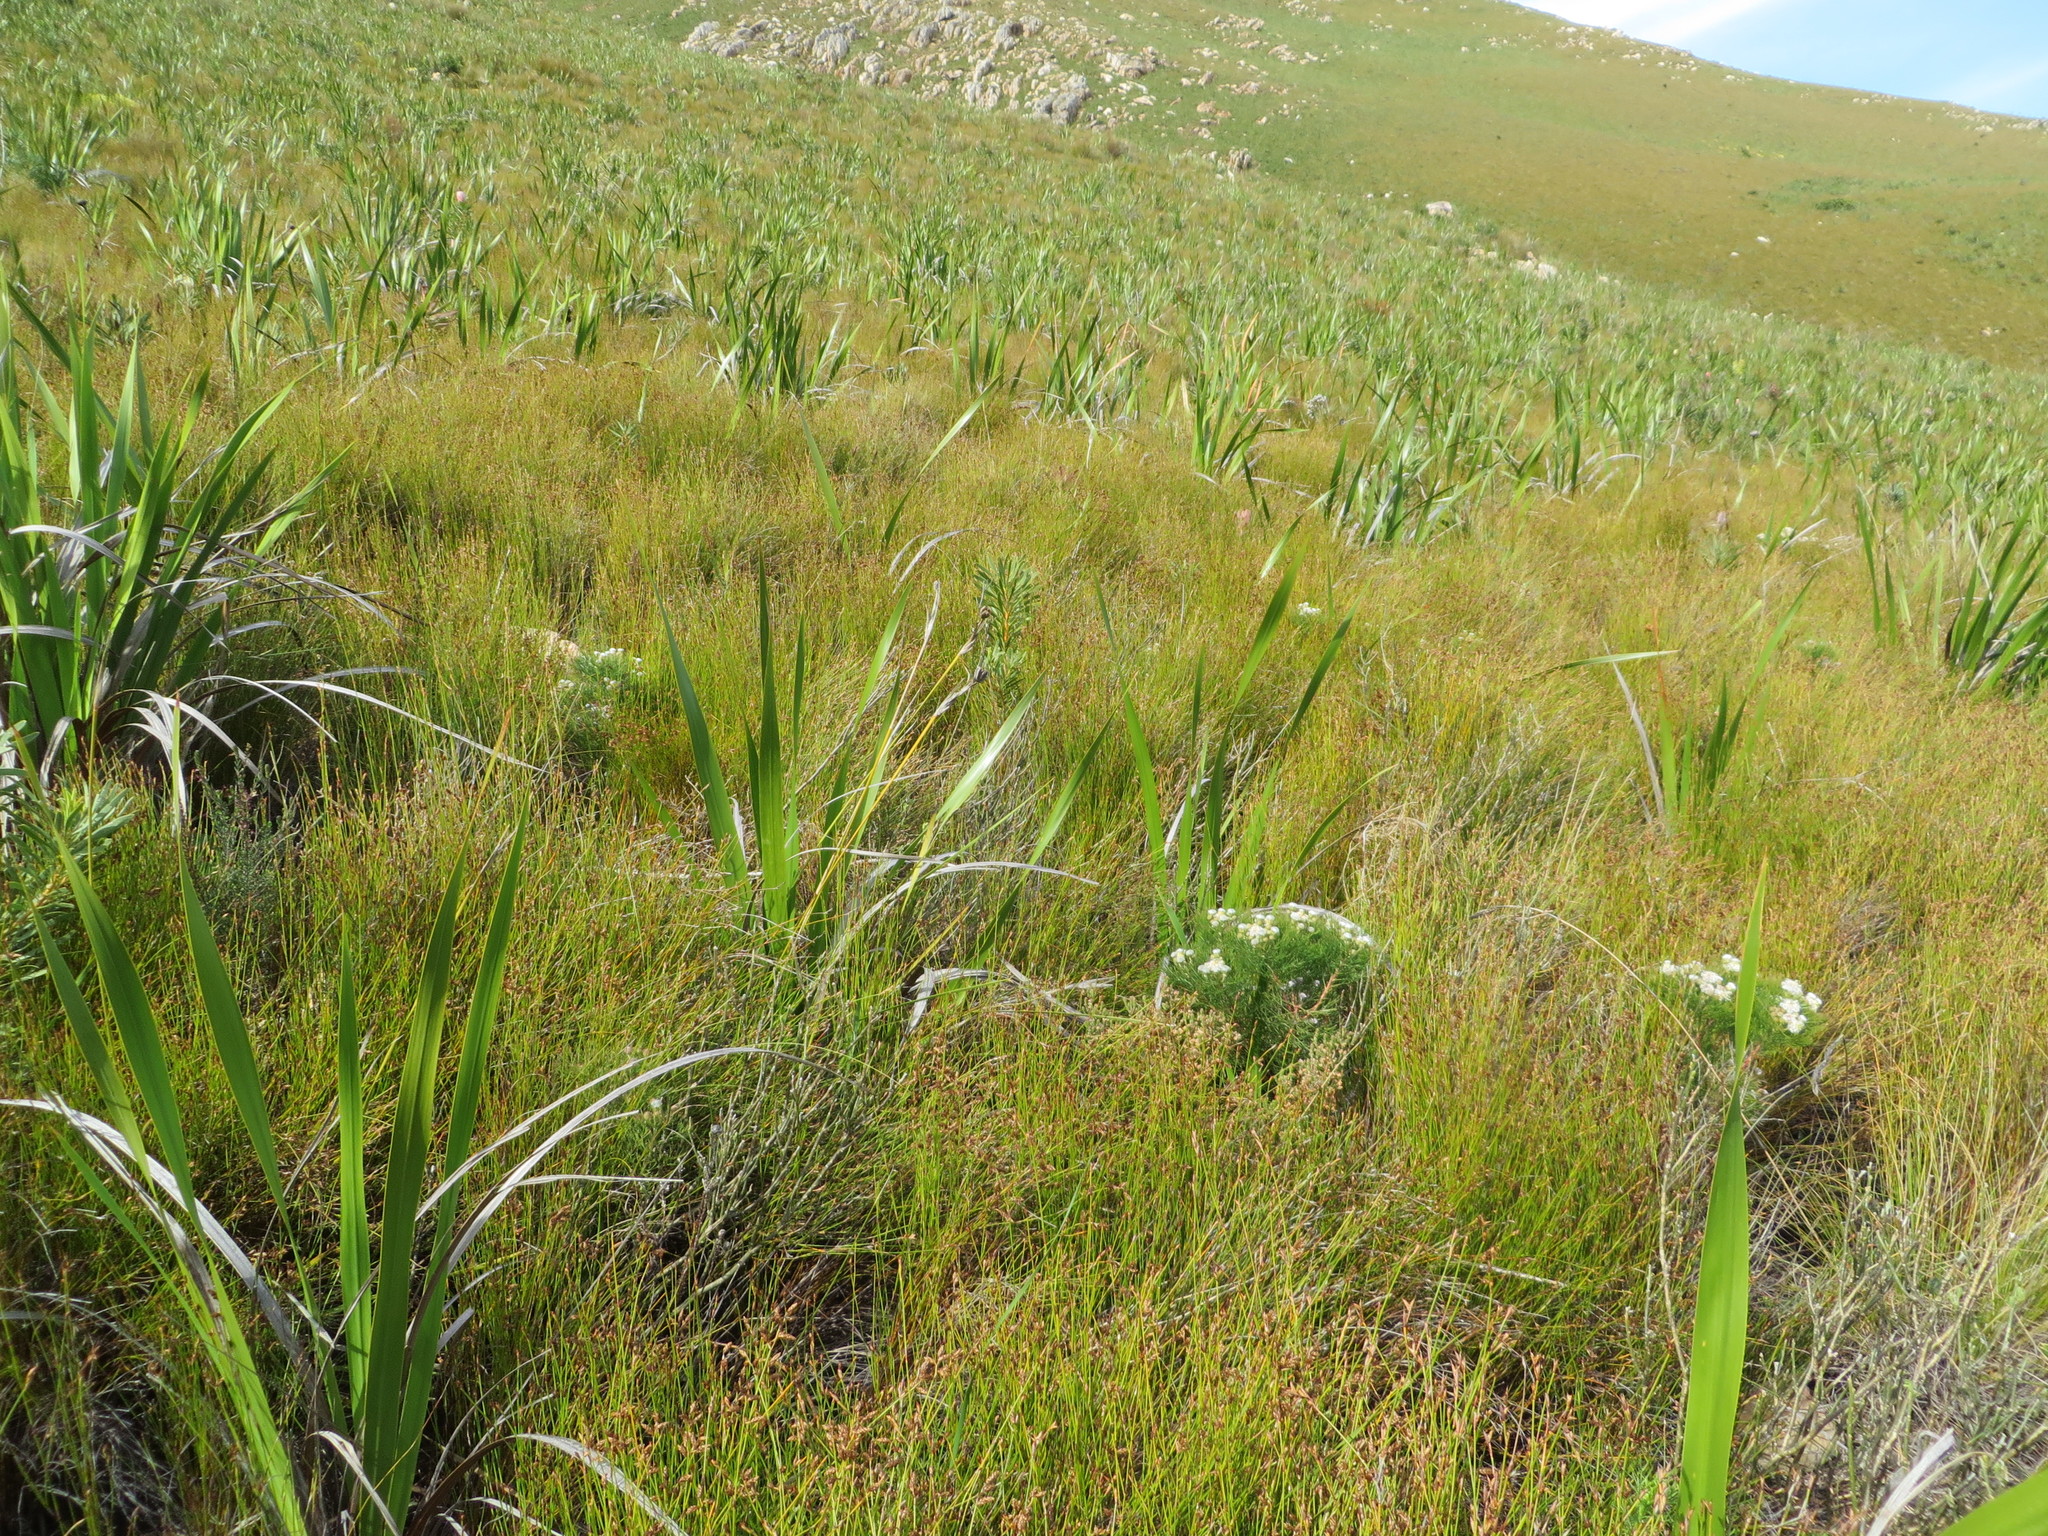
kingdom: Plantae
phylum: Tracheophyta
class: Magnoliopsida
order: Proteales
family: Proteaceae
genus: Serruria
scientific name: Serruria kraussii
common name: Snowball spiderhead
